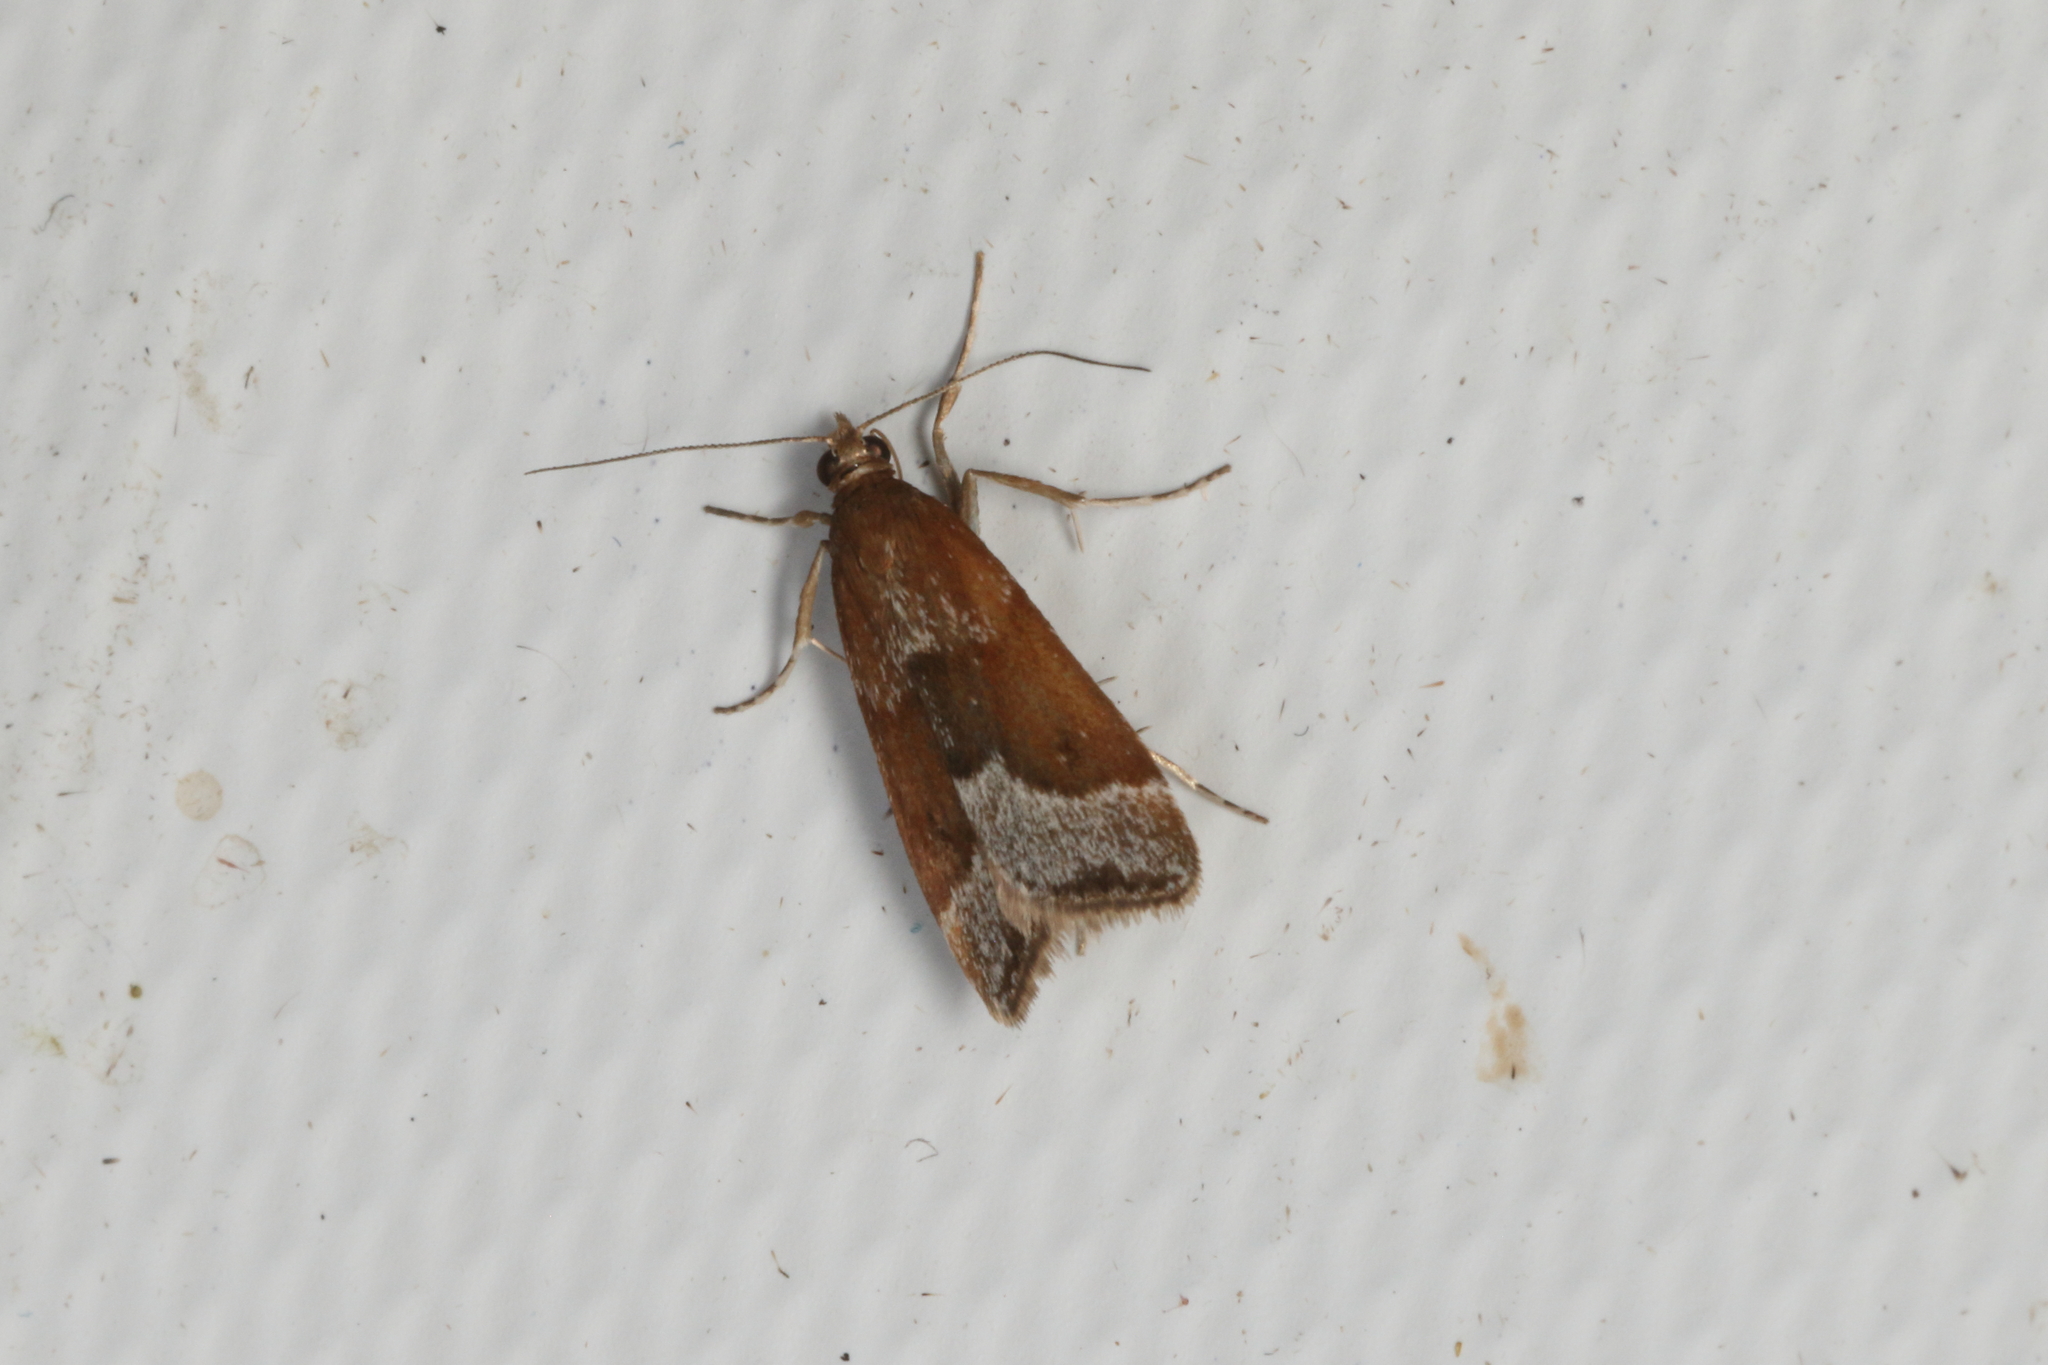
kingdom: Animalia
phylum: Arthropoda
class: Insecta
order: Lepidoptera
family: Crambidae
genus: Eudonia
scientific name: Eudonia feredayi
